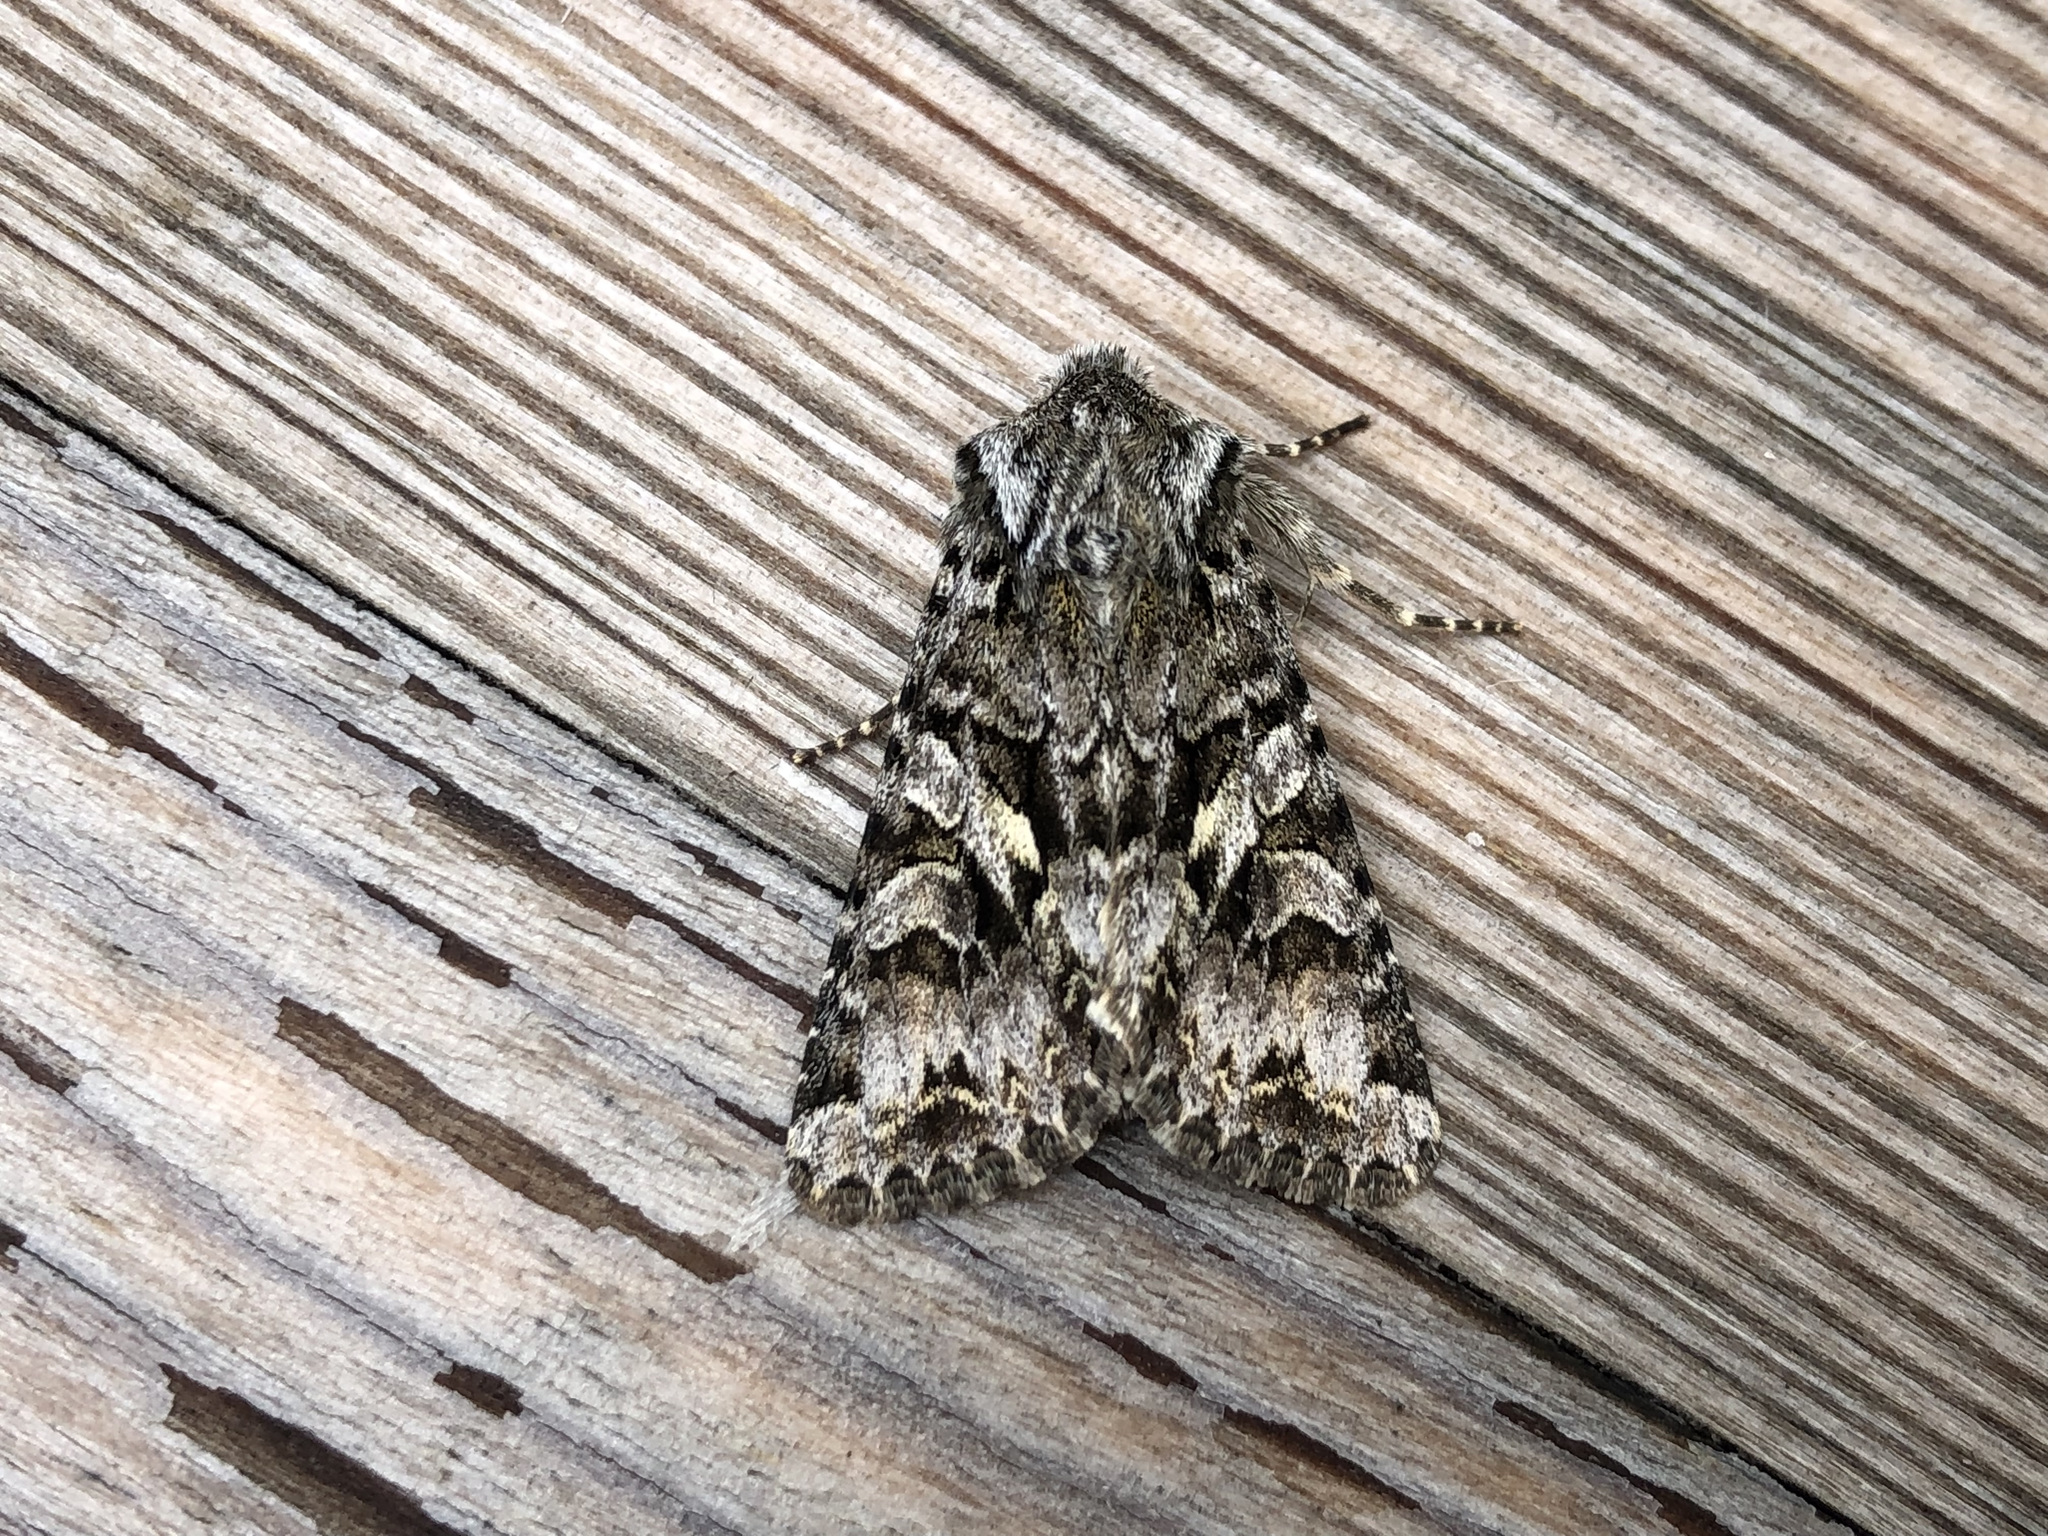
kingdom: Animalia
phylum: Arthropoda
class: Insecta
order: Lepidoptera
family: Noctuidae
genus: Hada
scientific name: Hada plebeja
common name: Shears
